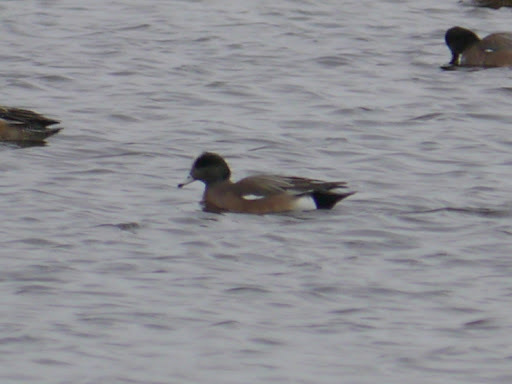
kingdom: Animalia
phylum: Chordata
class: Aves
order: Anseriformes
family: Anatidae
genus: Mareca
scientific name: Mareca americana
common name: American wigeon
